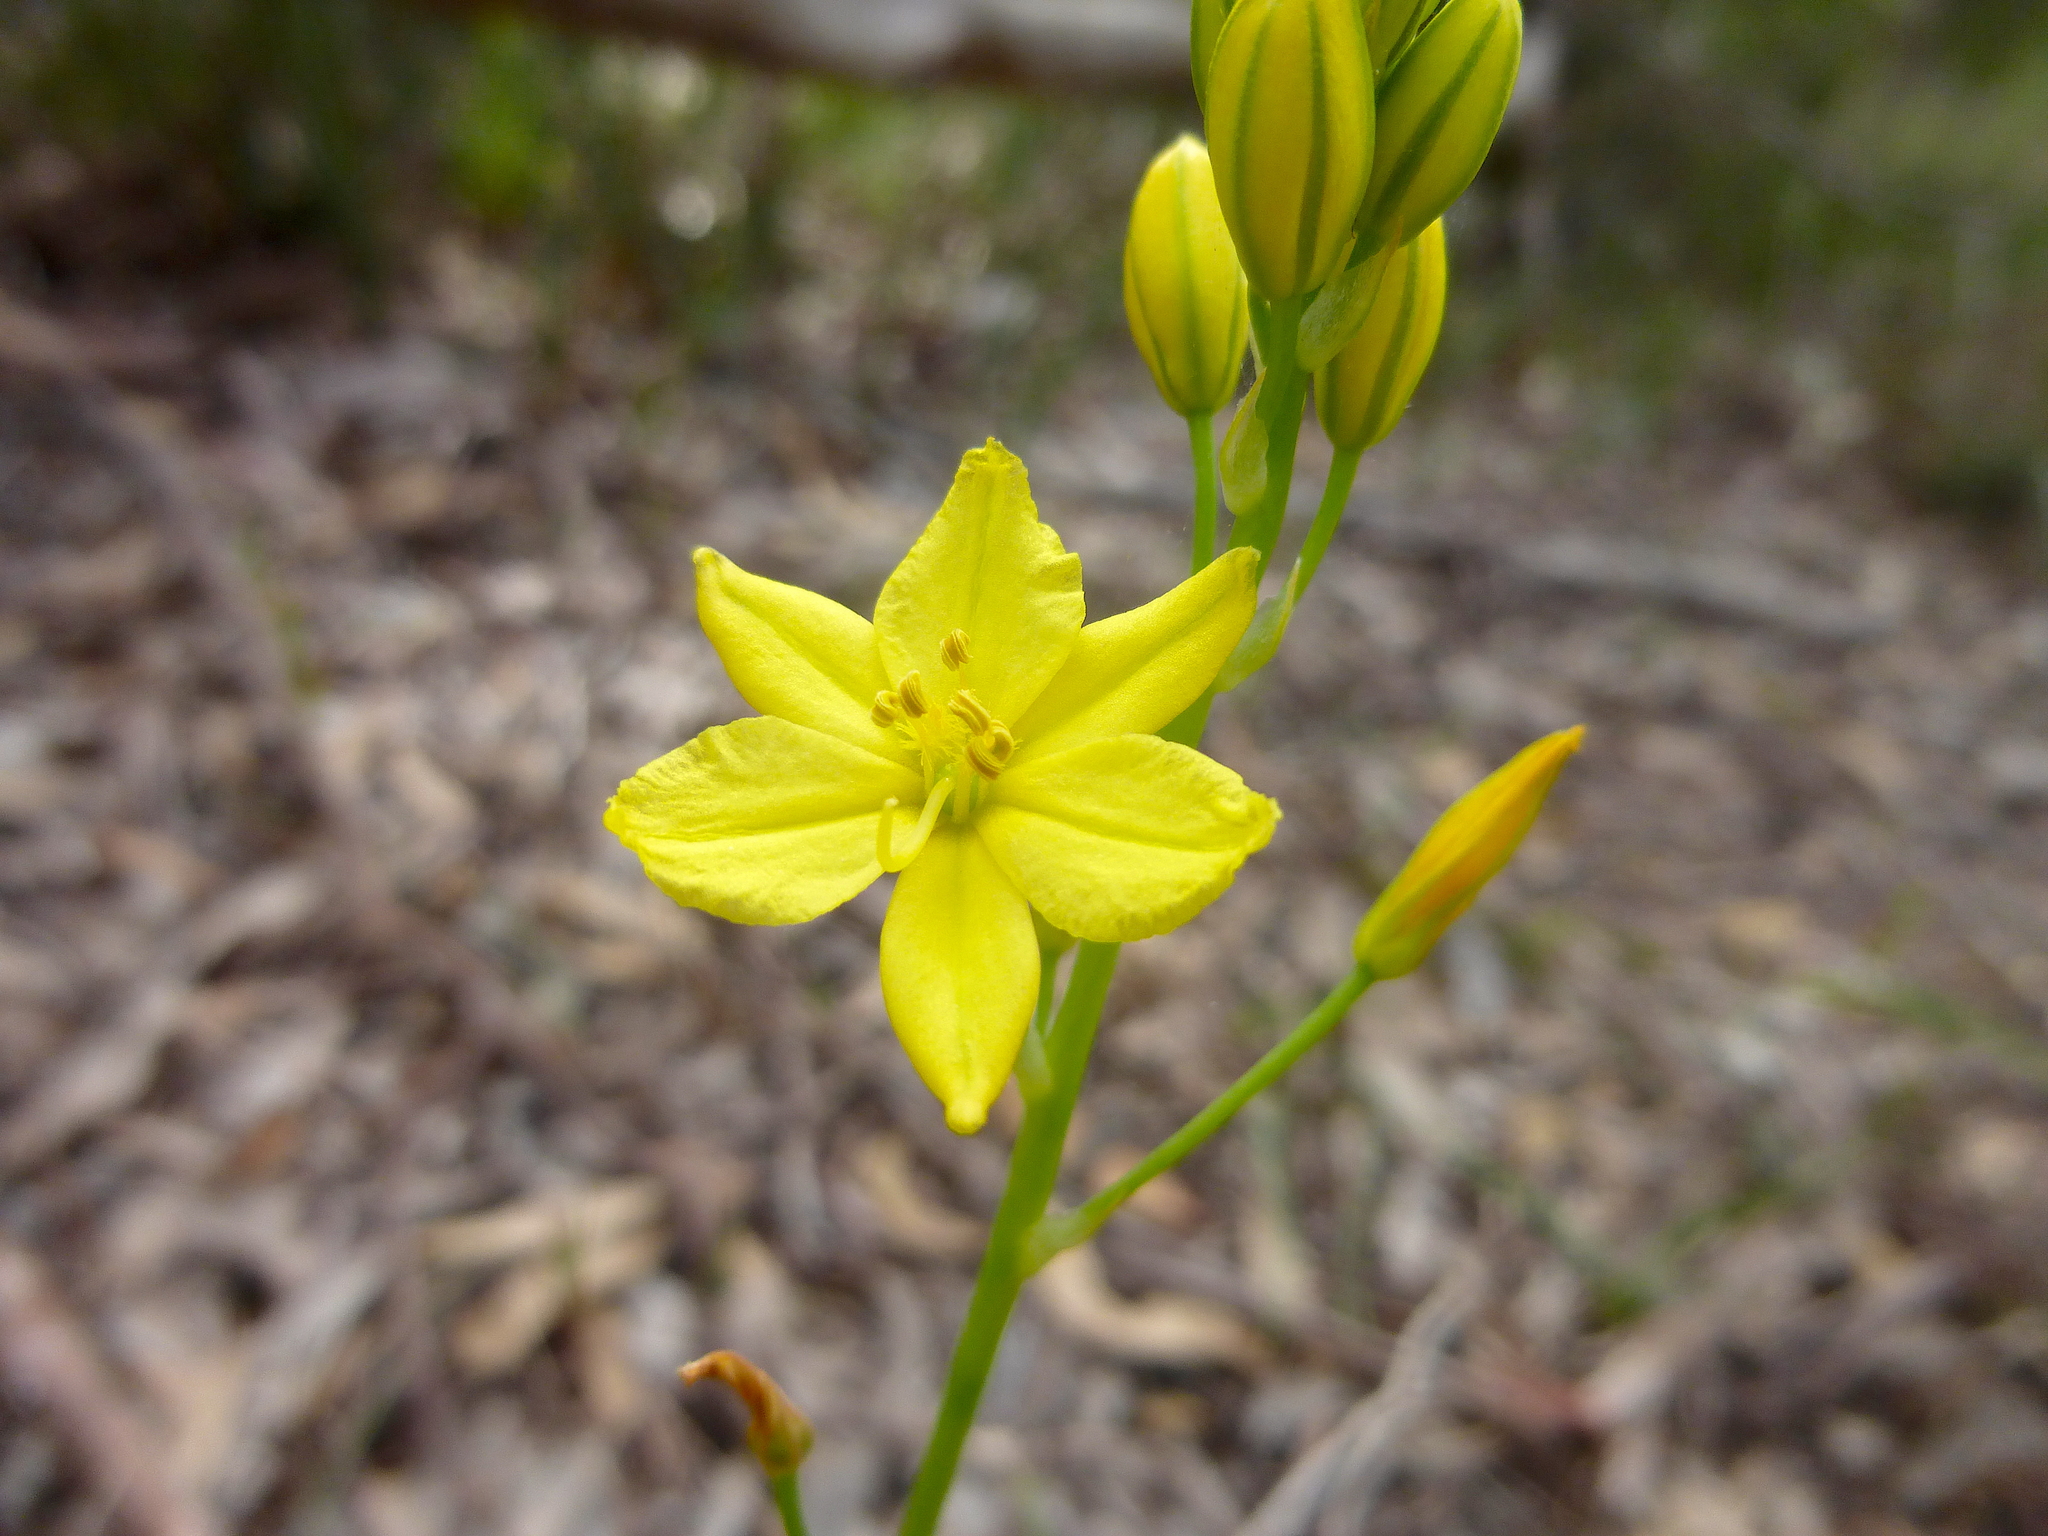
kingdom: Plantae
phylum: Tracheophyta
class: Liliopsida
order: Asparagales
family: Asphodelaceae
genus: Bulbine
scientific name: Bulbine bulbosa
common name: Golden-lily
